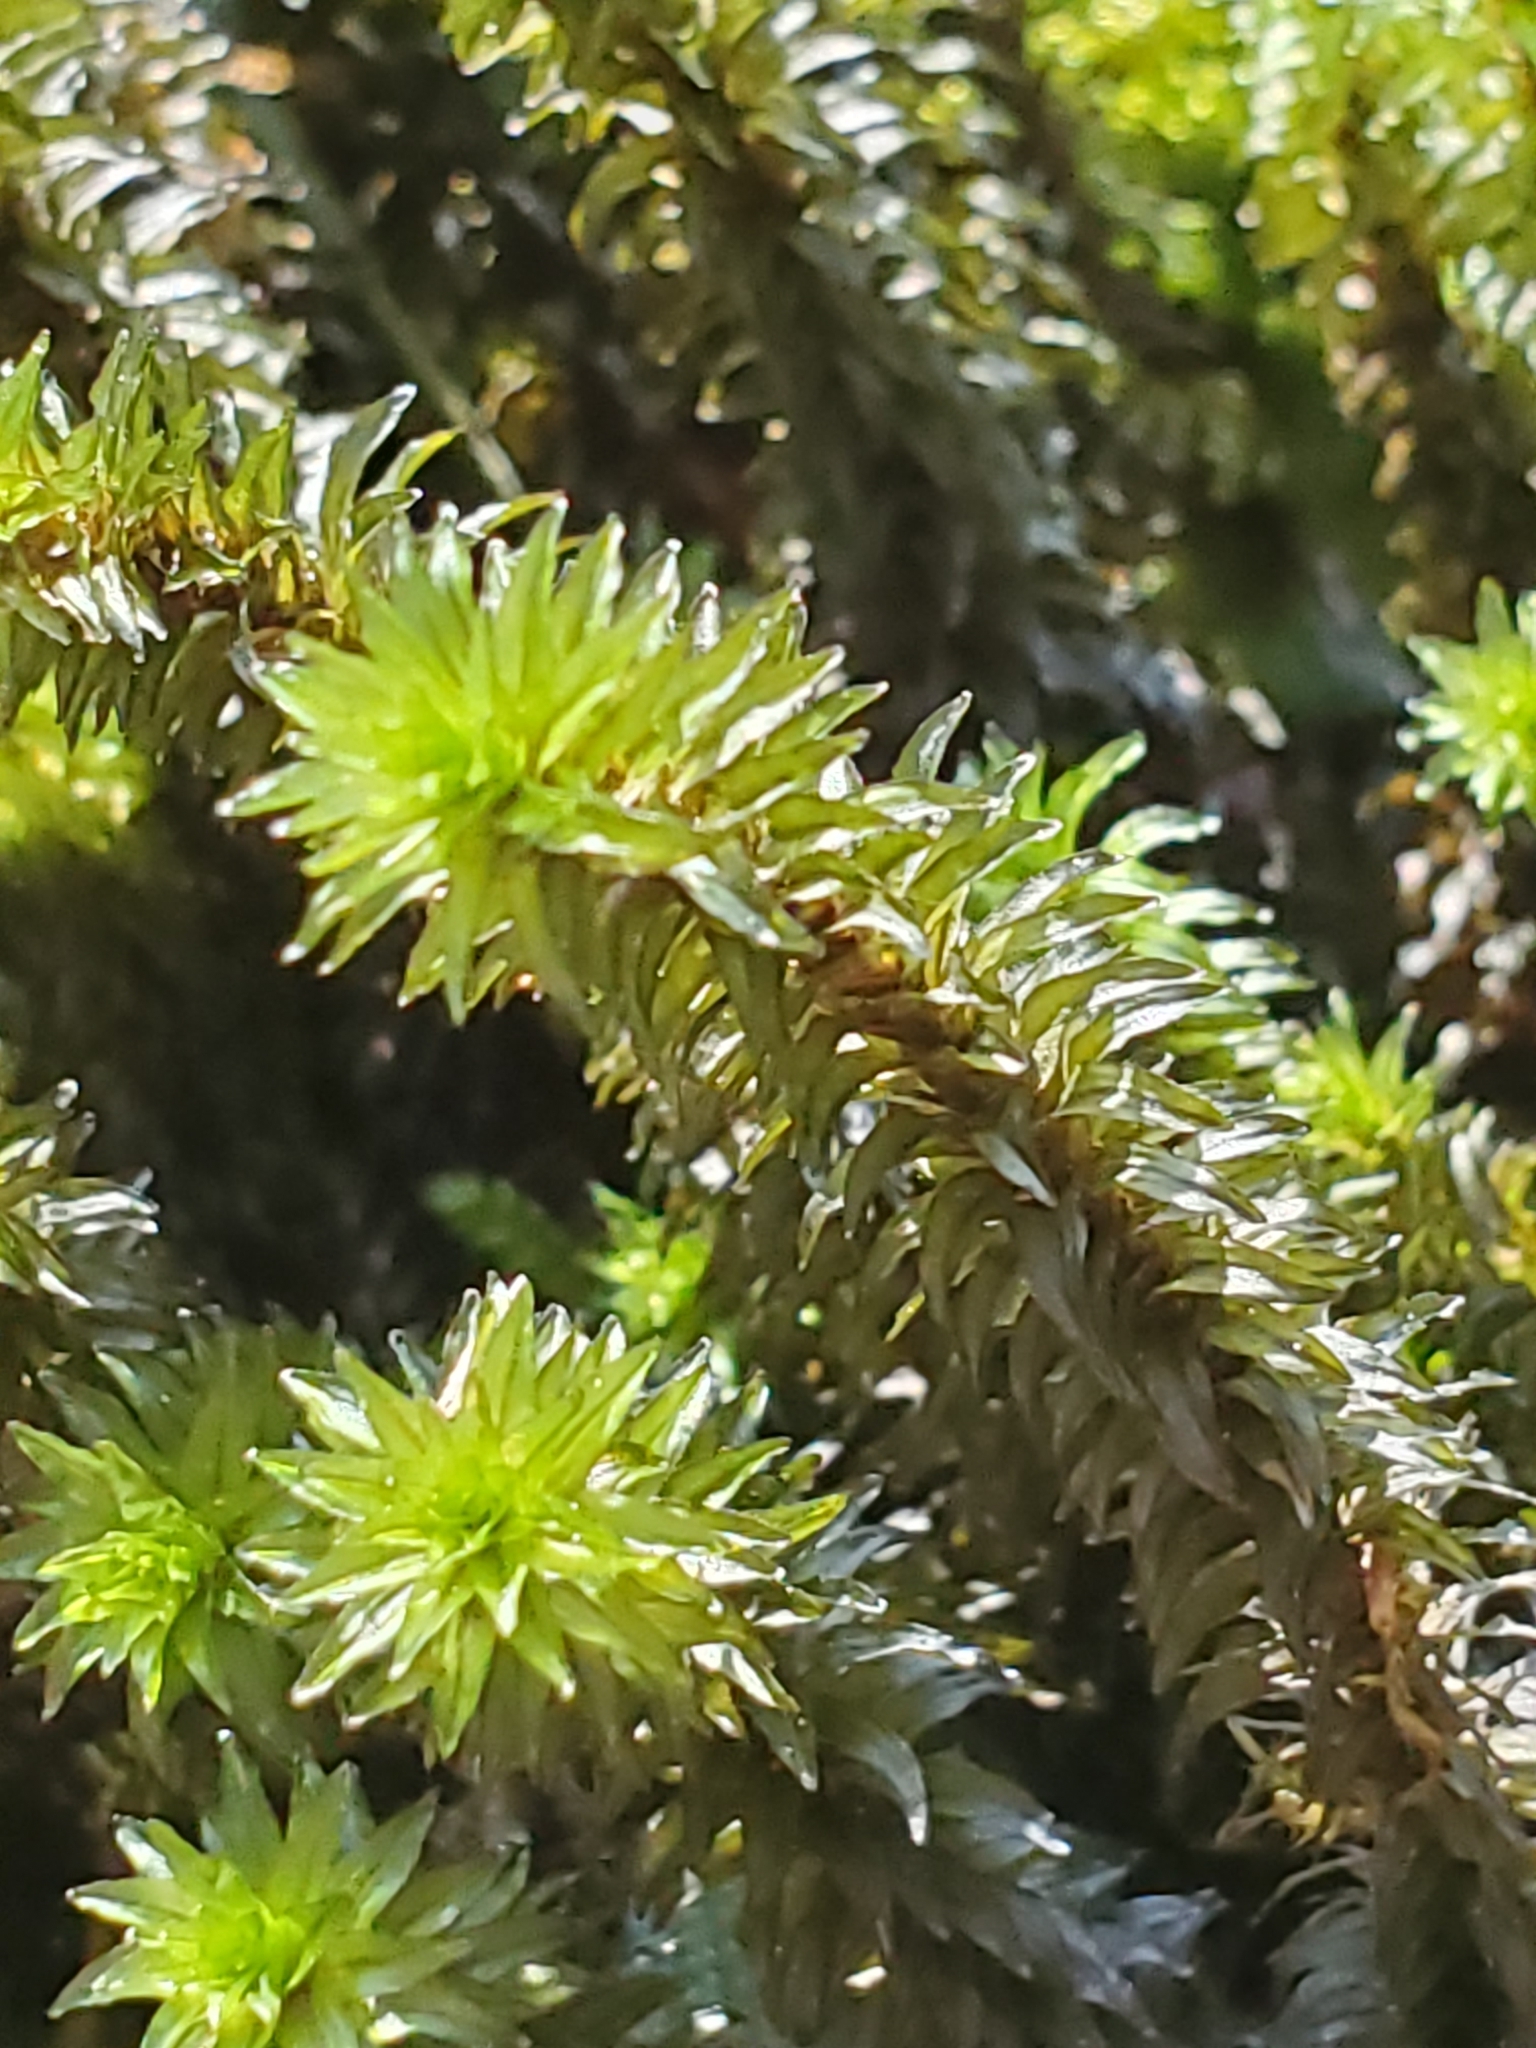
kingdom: Plantae
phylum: Bryophyta
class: Bryopsida
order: Scouleriales
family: Scouleriaceae
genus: Scouleria
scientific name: Scouleria aquatica
